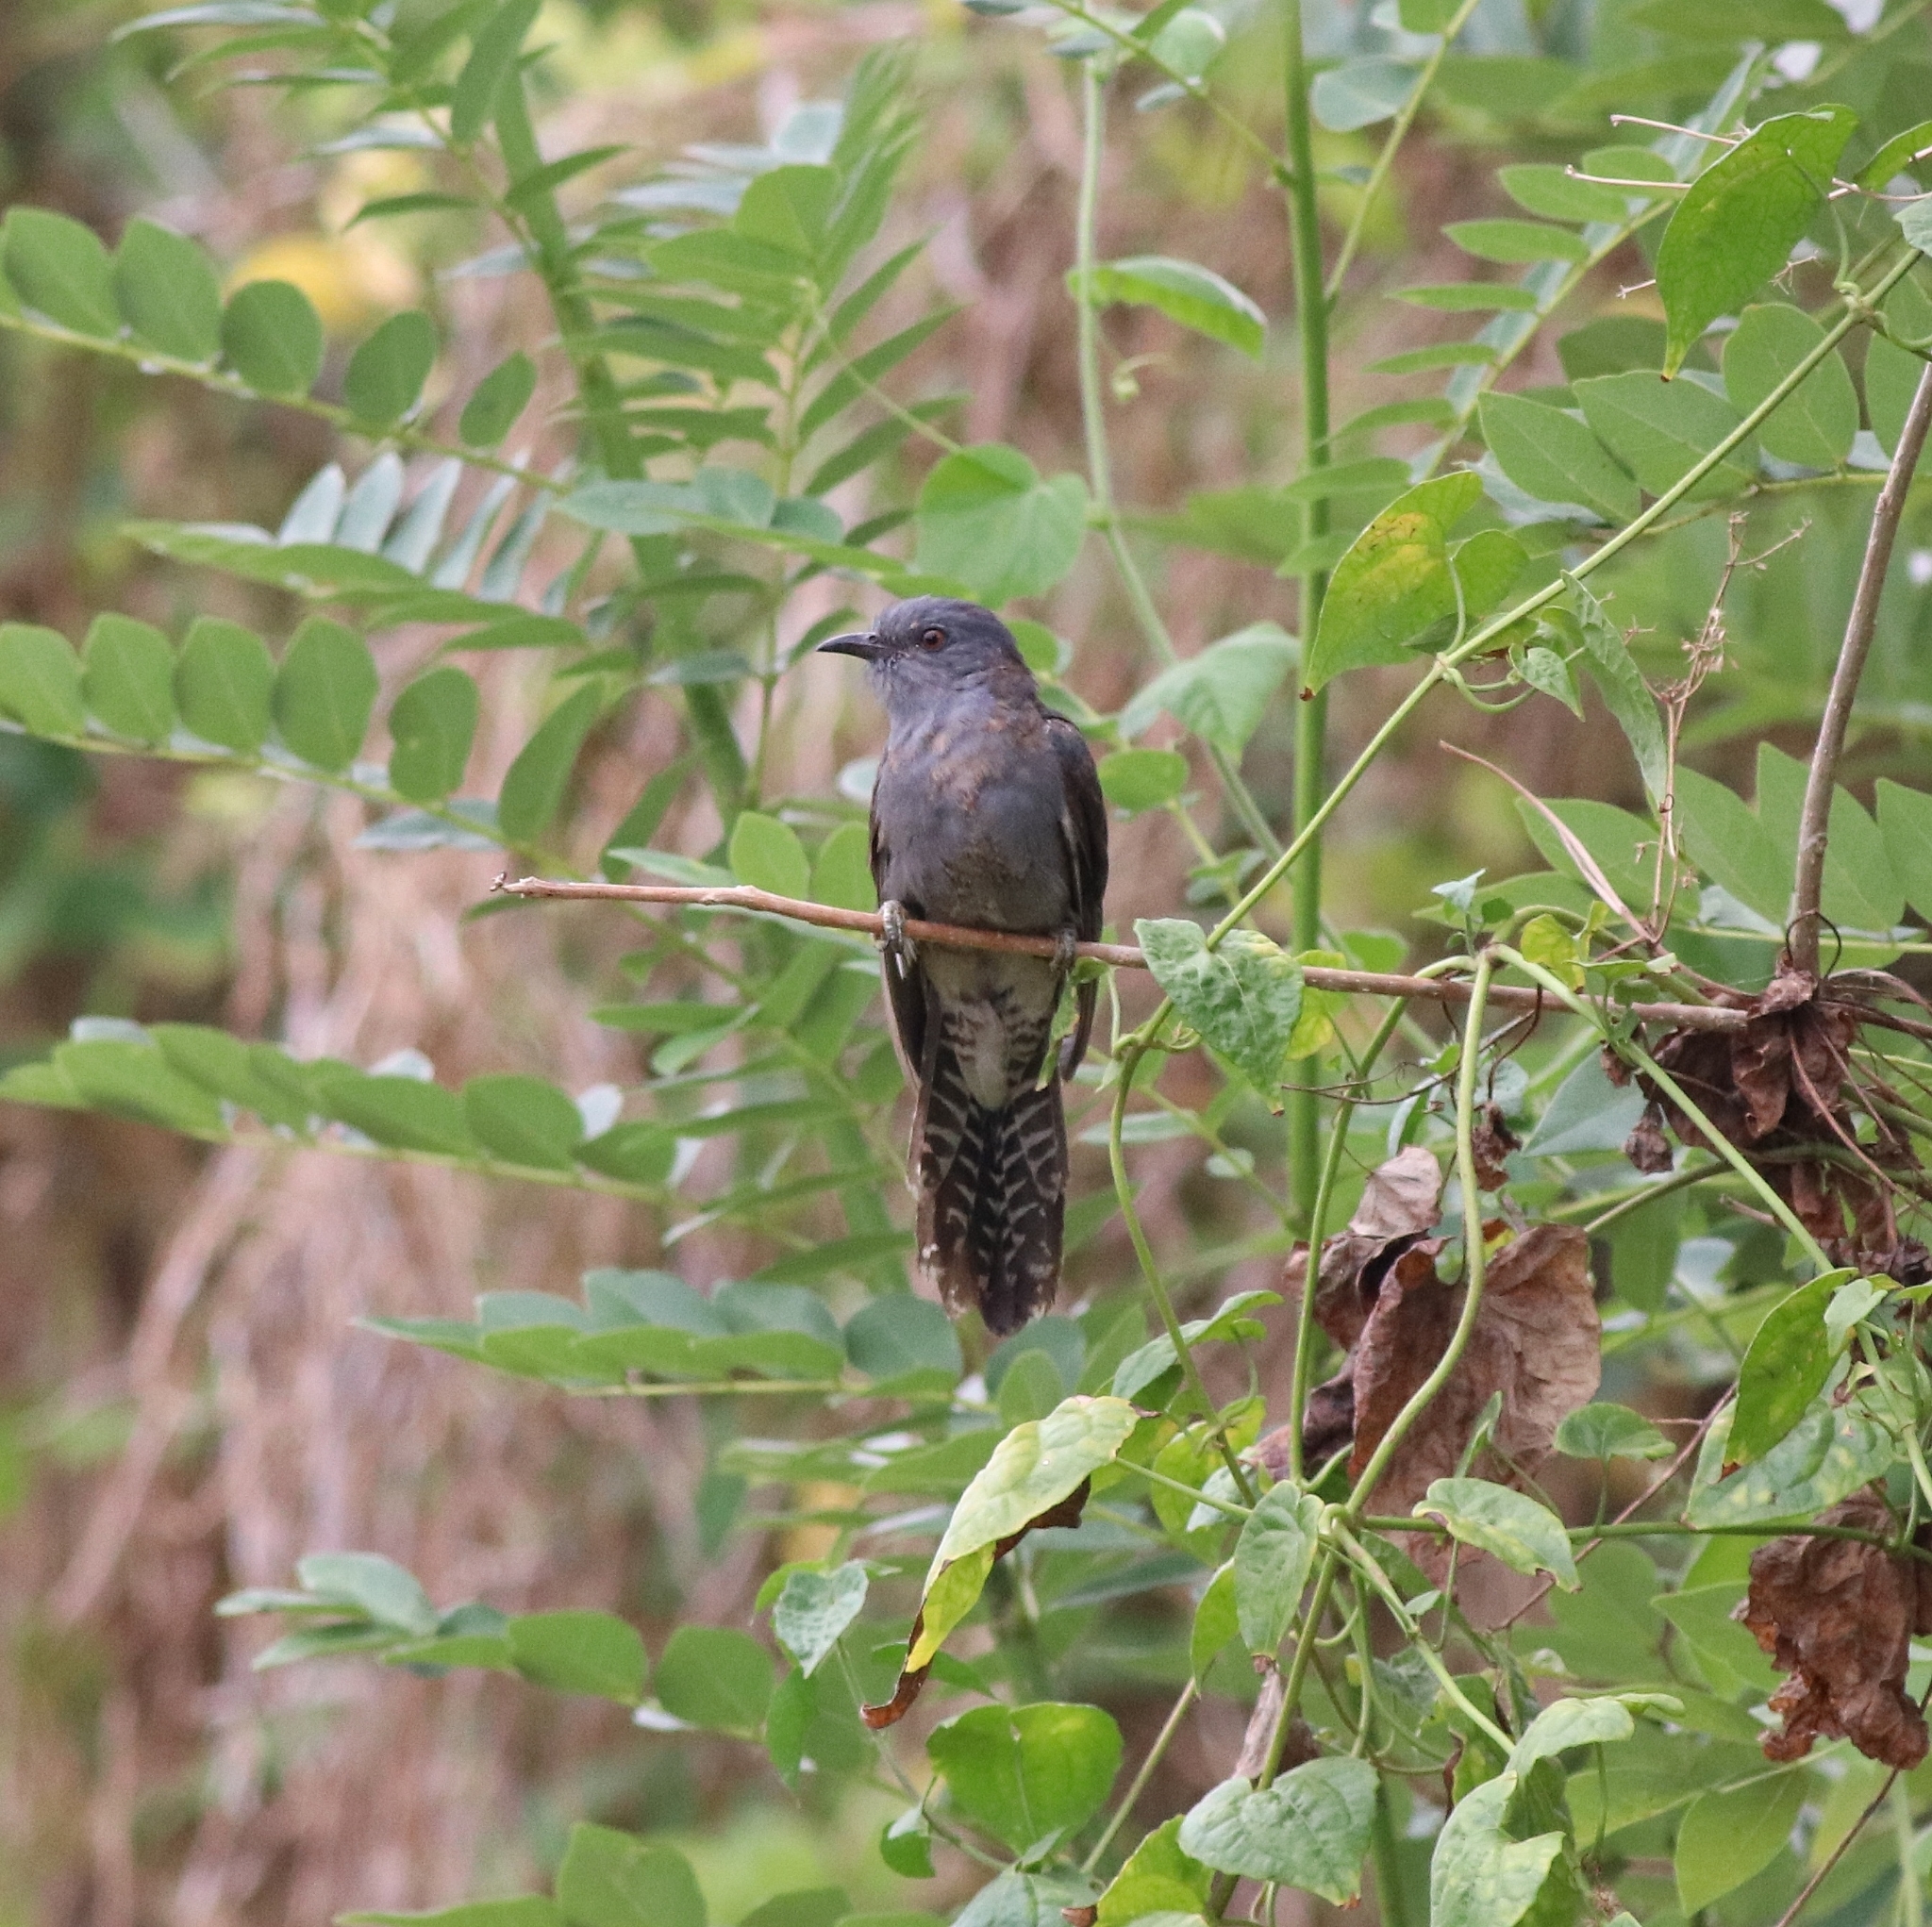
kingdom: Animalia
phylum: Chordata
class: Aves
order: Cuculiformes
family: Cuculidae
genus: Cacomantis
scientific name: Cacomantis passerinus
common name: Grey-bellied cuckoo
